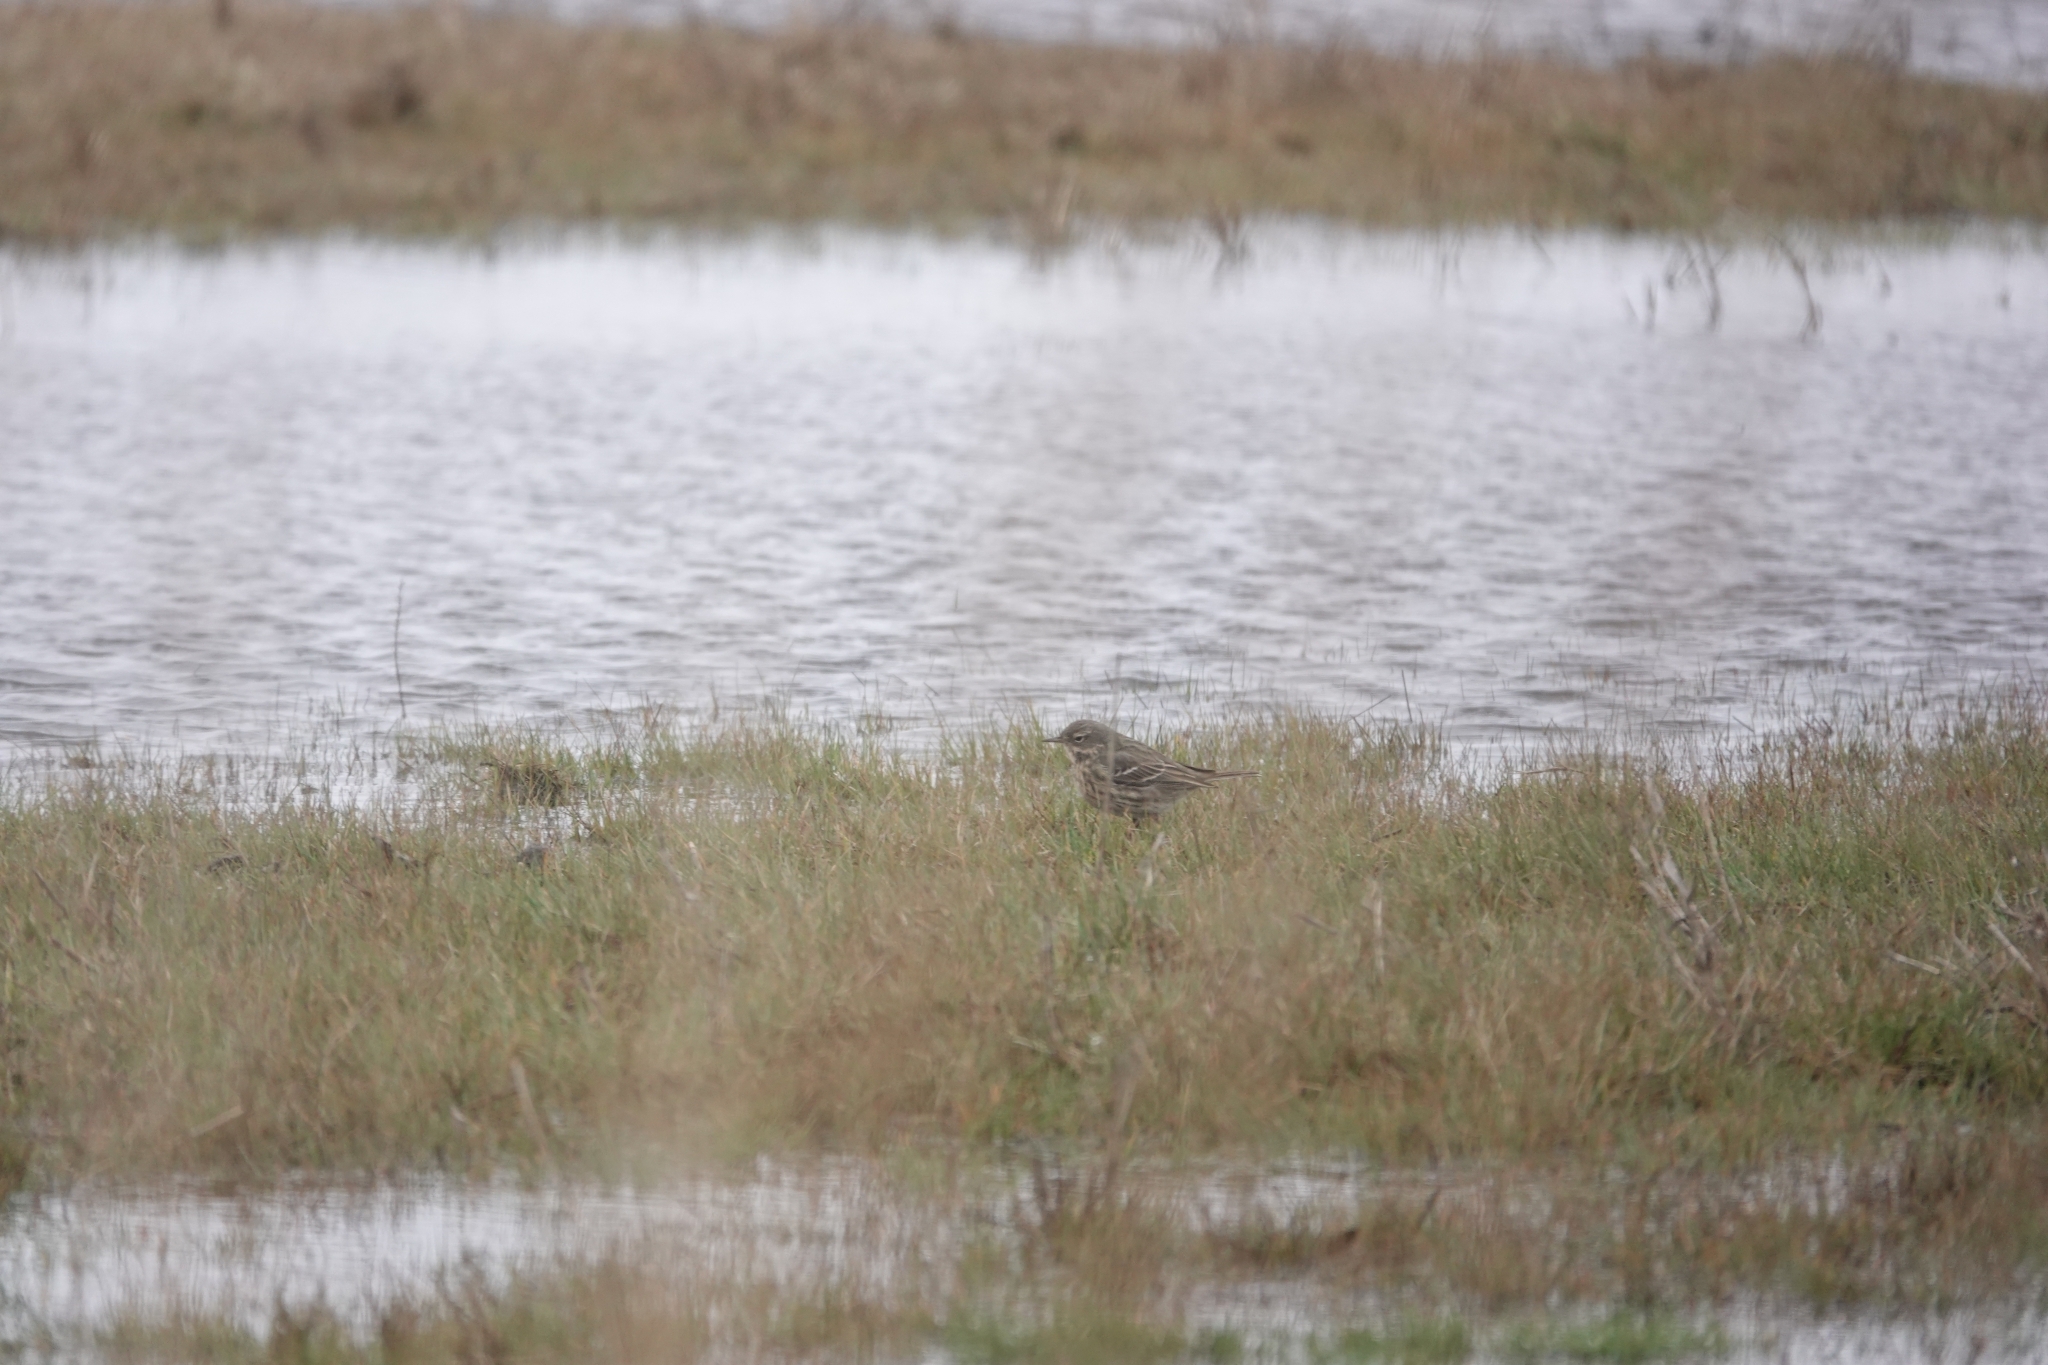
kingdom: Animalia
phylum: Chordata
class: Aves
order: Passeriformes
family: Motacillidae
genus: Anthus
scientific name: Anthus petrosus
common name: Eurasian rock pipit
